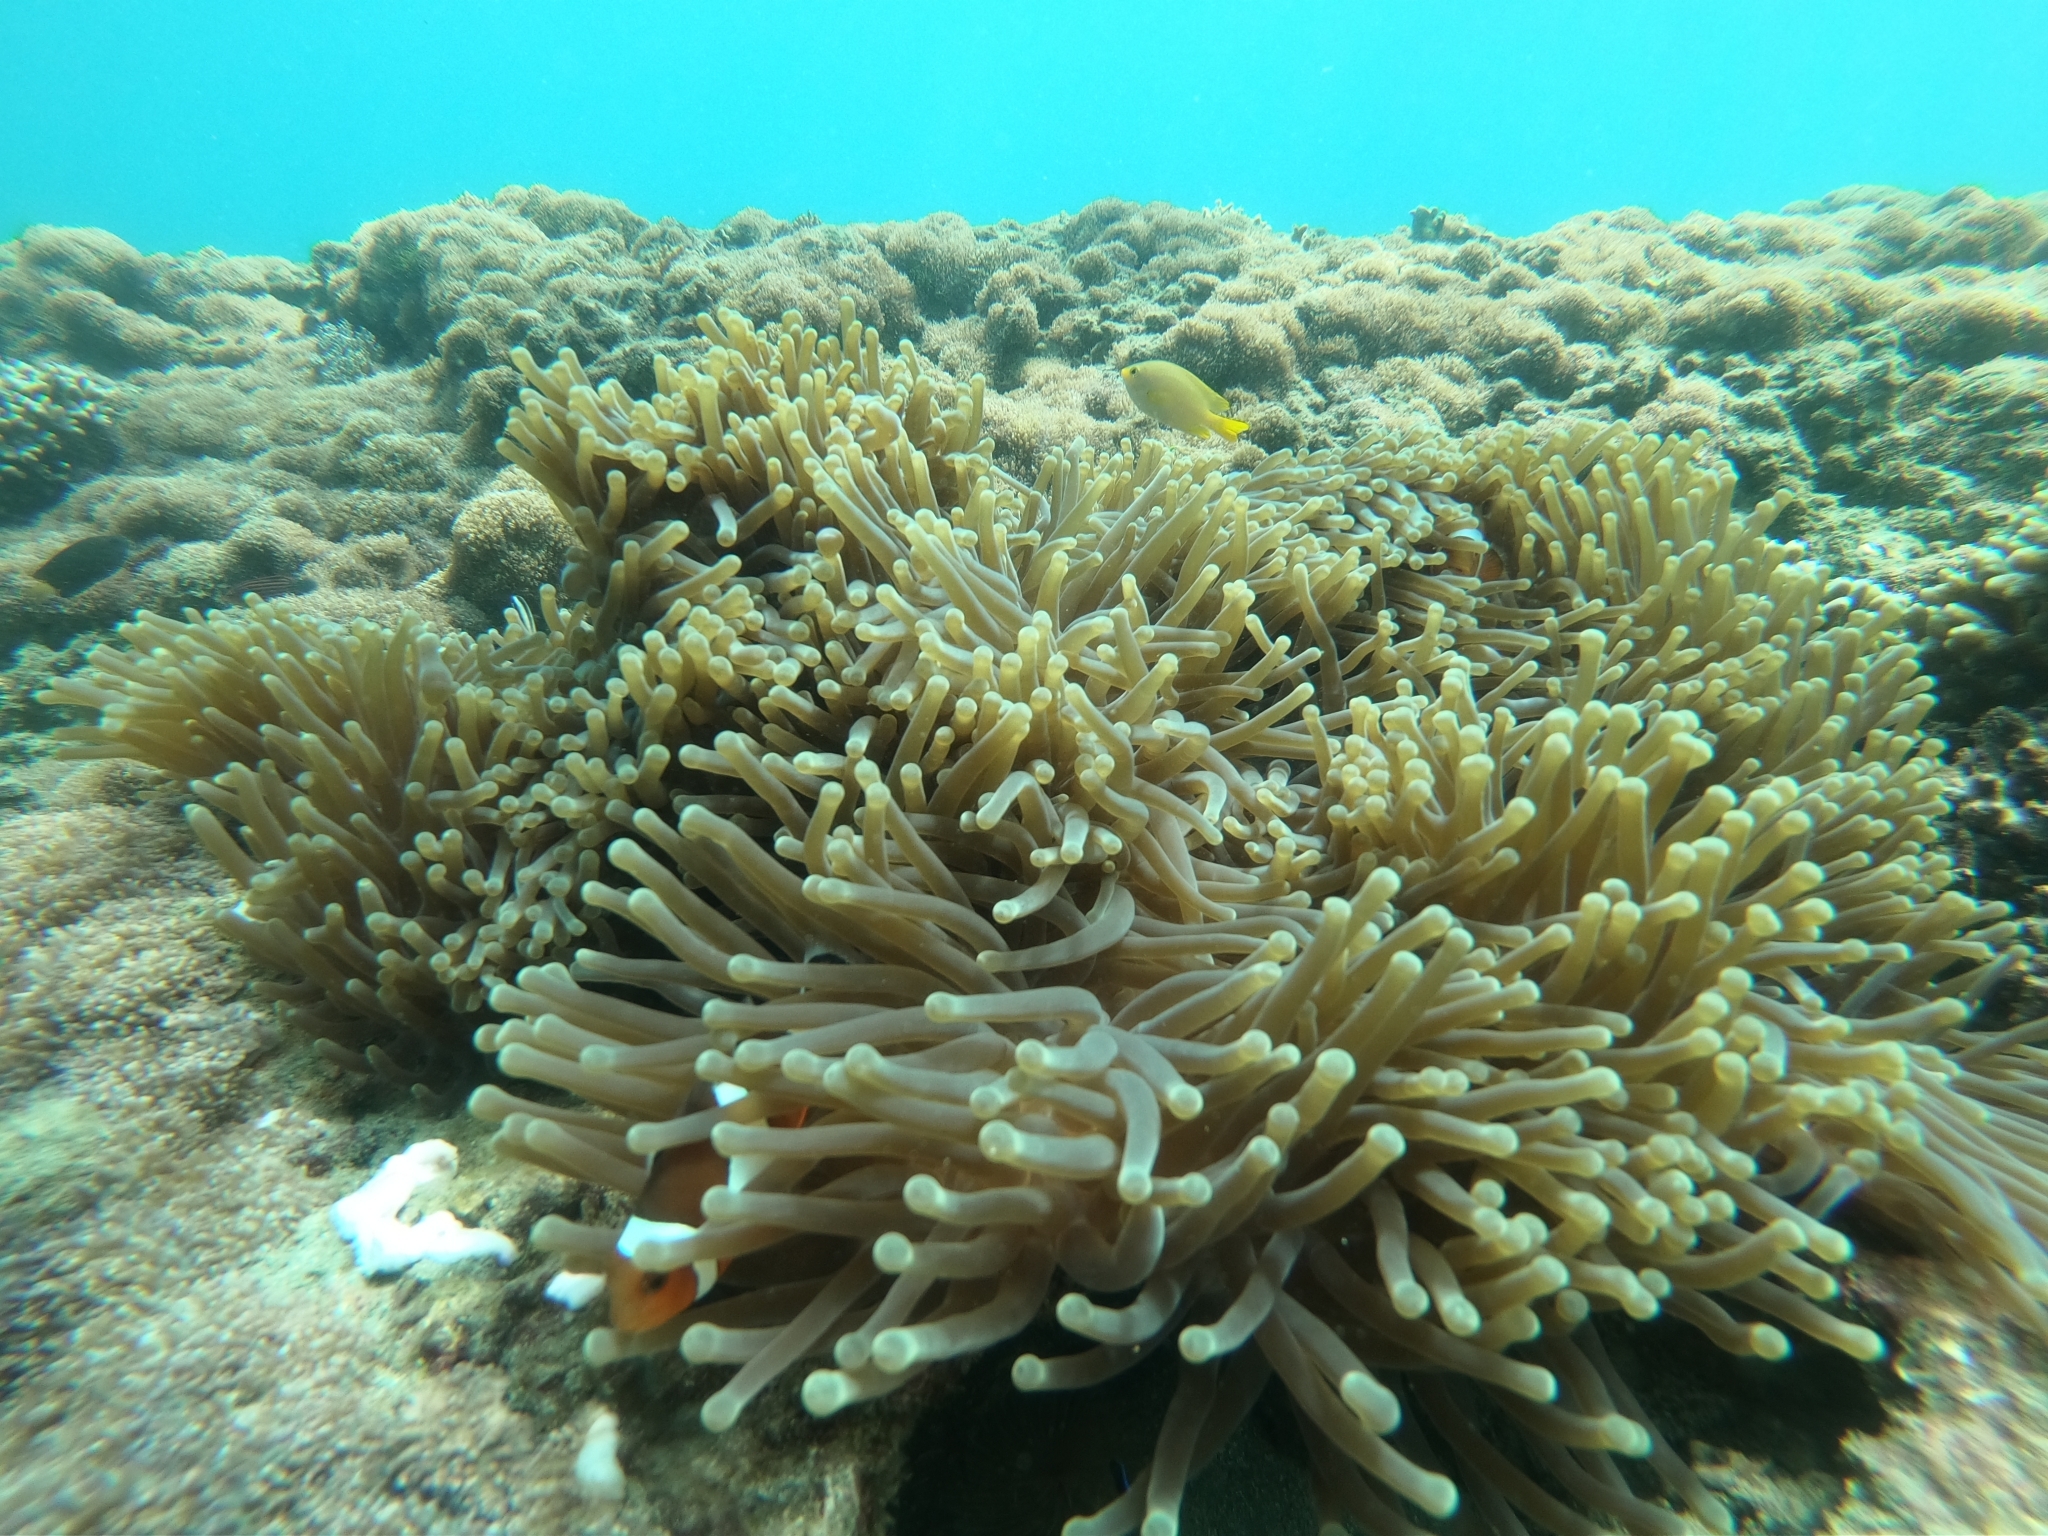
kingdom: Animalia
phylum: Cnidaria
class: Anthozoa
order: Actiniaria
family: Stichodactylidae
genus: Radianthus
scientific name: Radianthus magnifica
